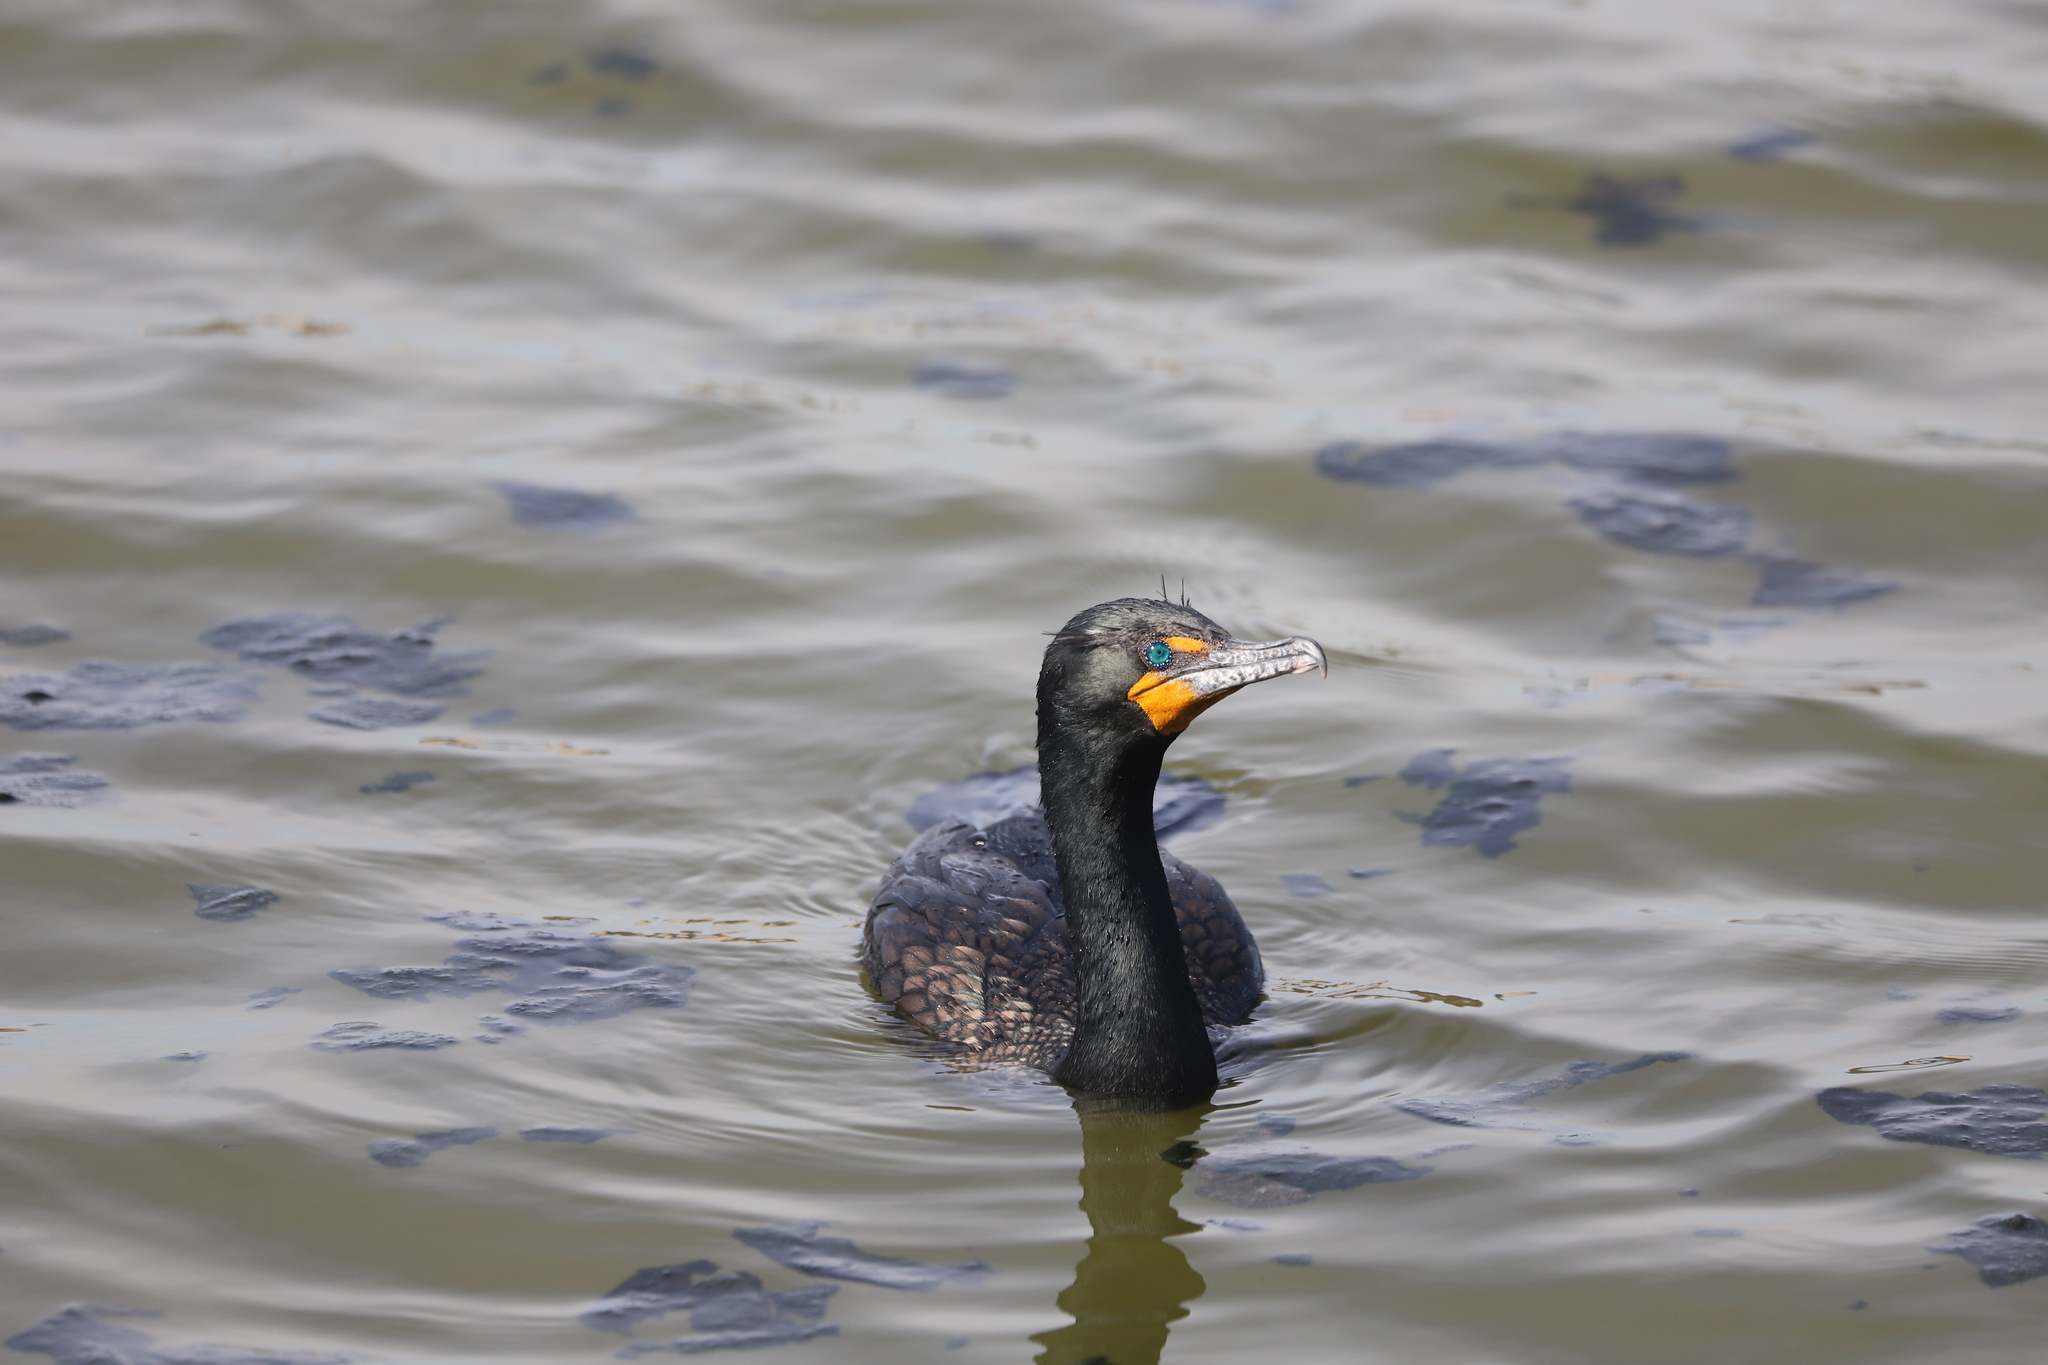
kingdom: Animalia
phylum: Chordata
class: Aves
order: Suliformes
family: Phalacrocoracidae
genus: Phalacrocorax
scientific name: Phalacrocorax auritus
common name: Double-crested cormorant
